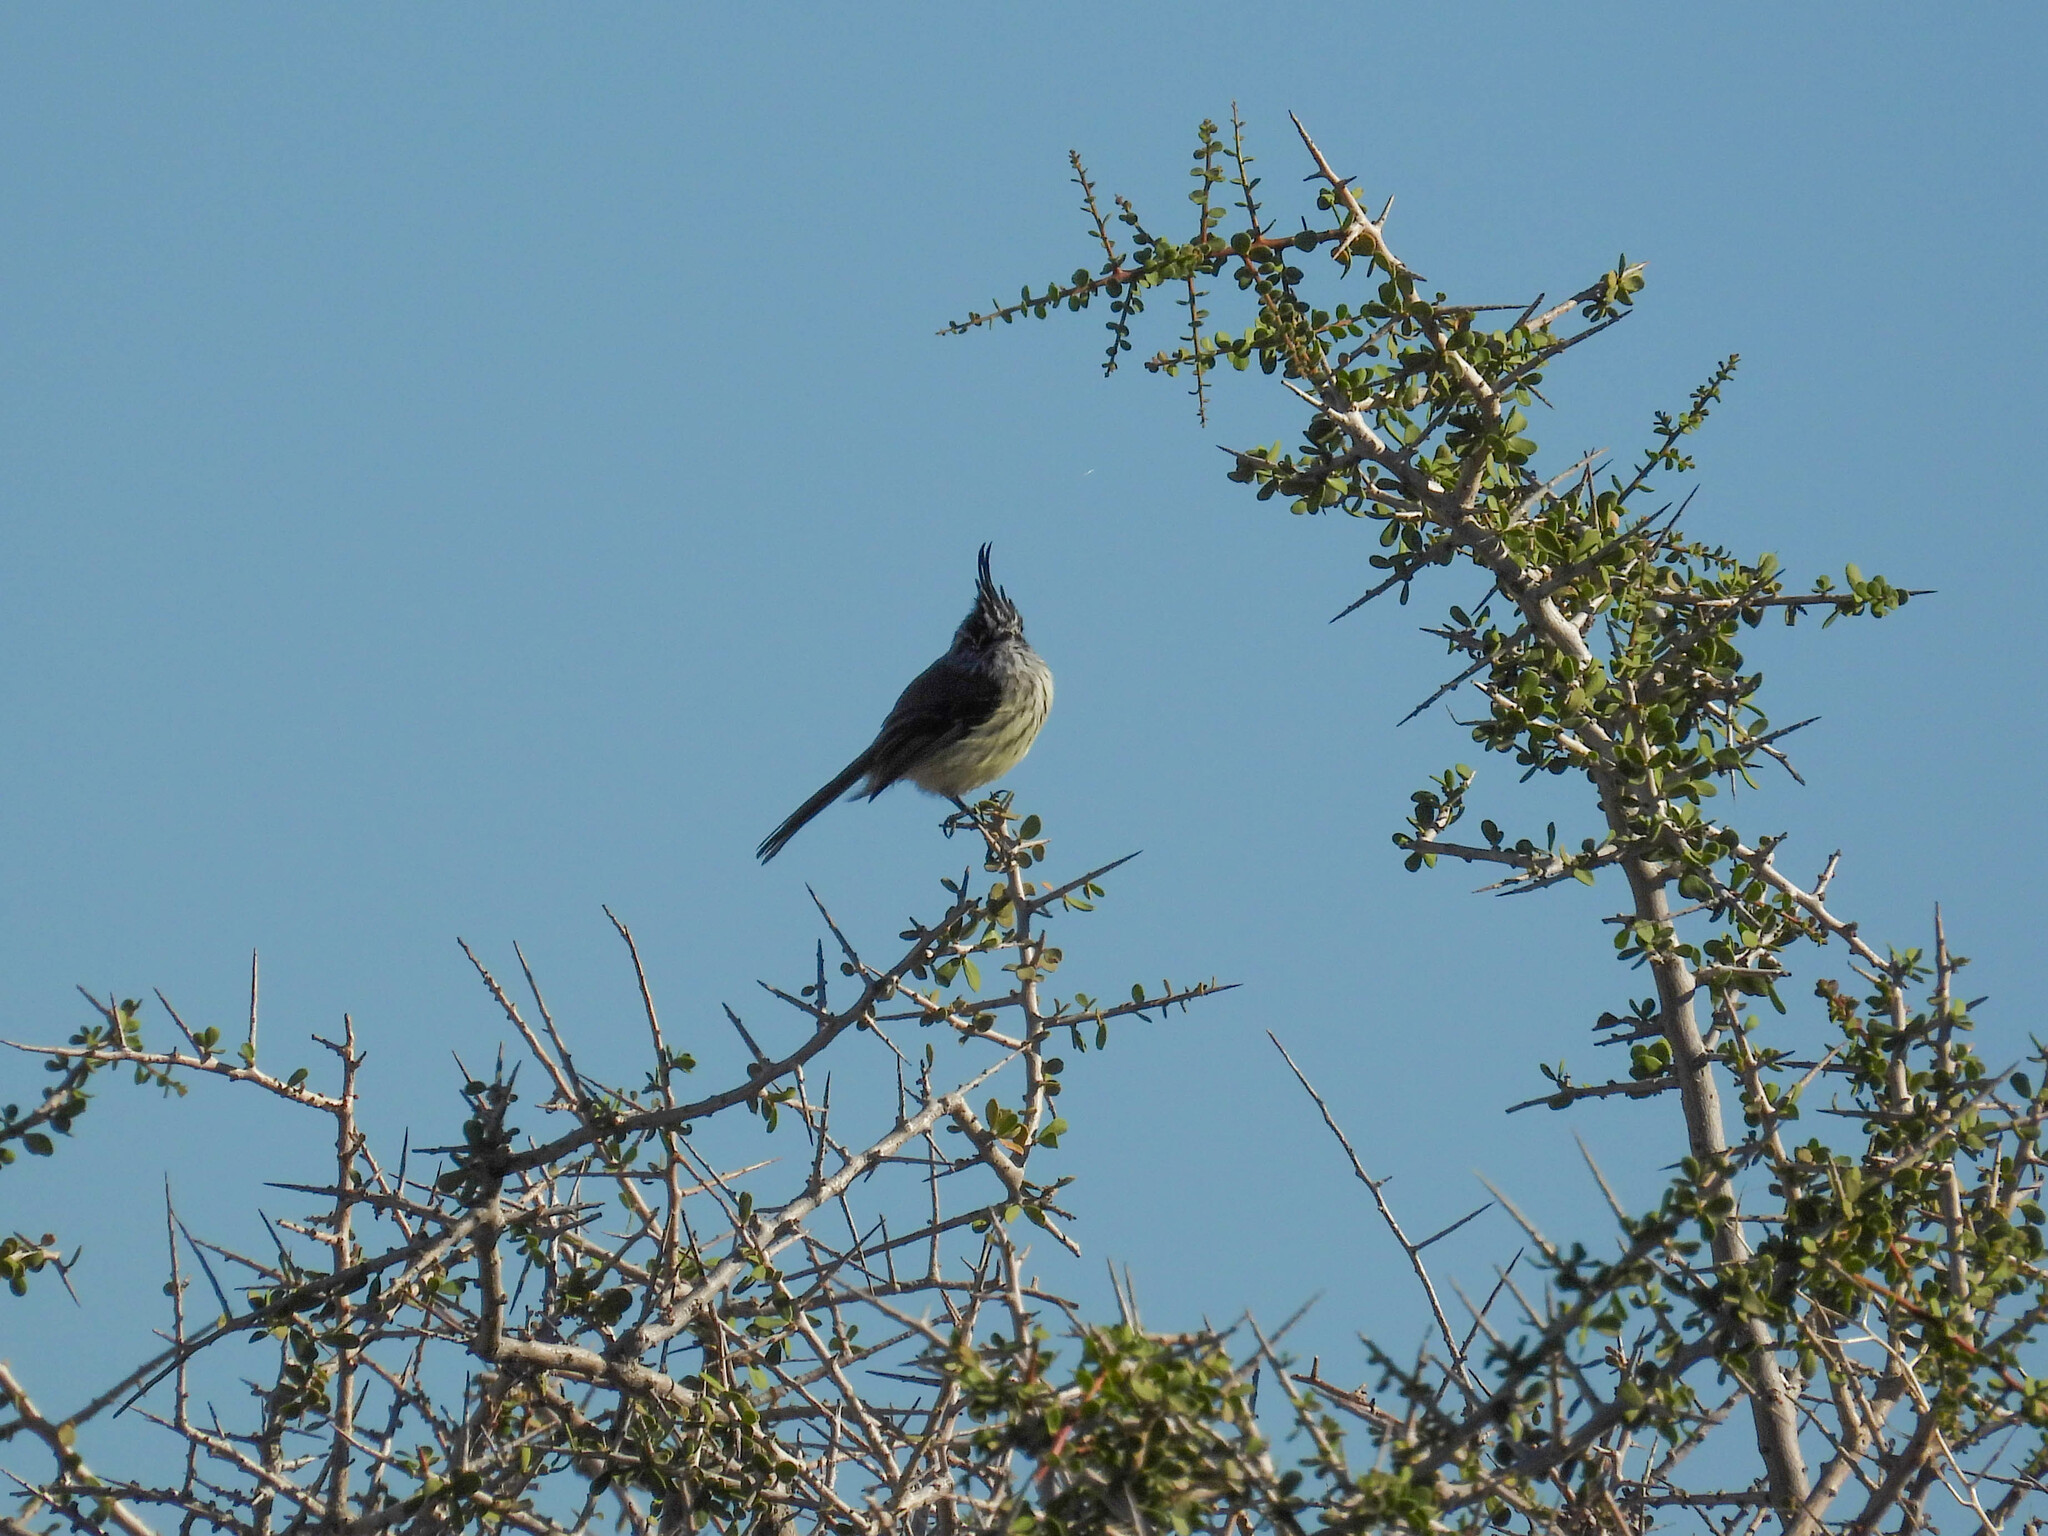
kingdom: Animalia
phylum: Chordata
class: Aves
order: Passeriformes
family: Tyrannidae
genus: Anairetes
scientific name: Anairetes parulus
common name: Tufted tit-tyrant
